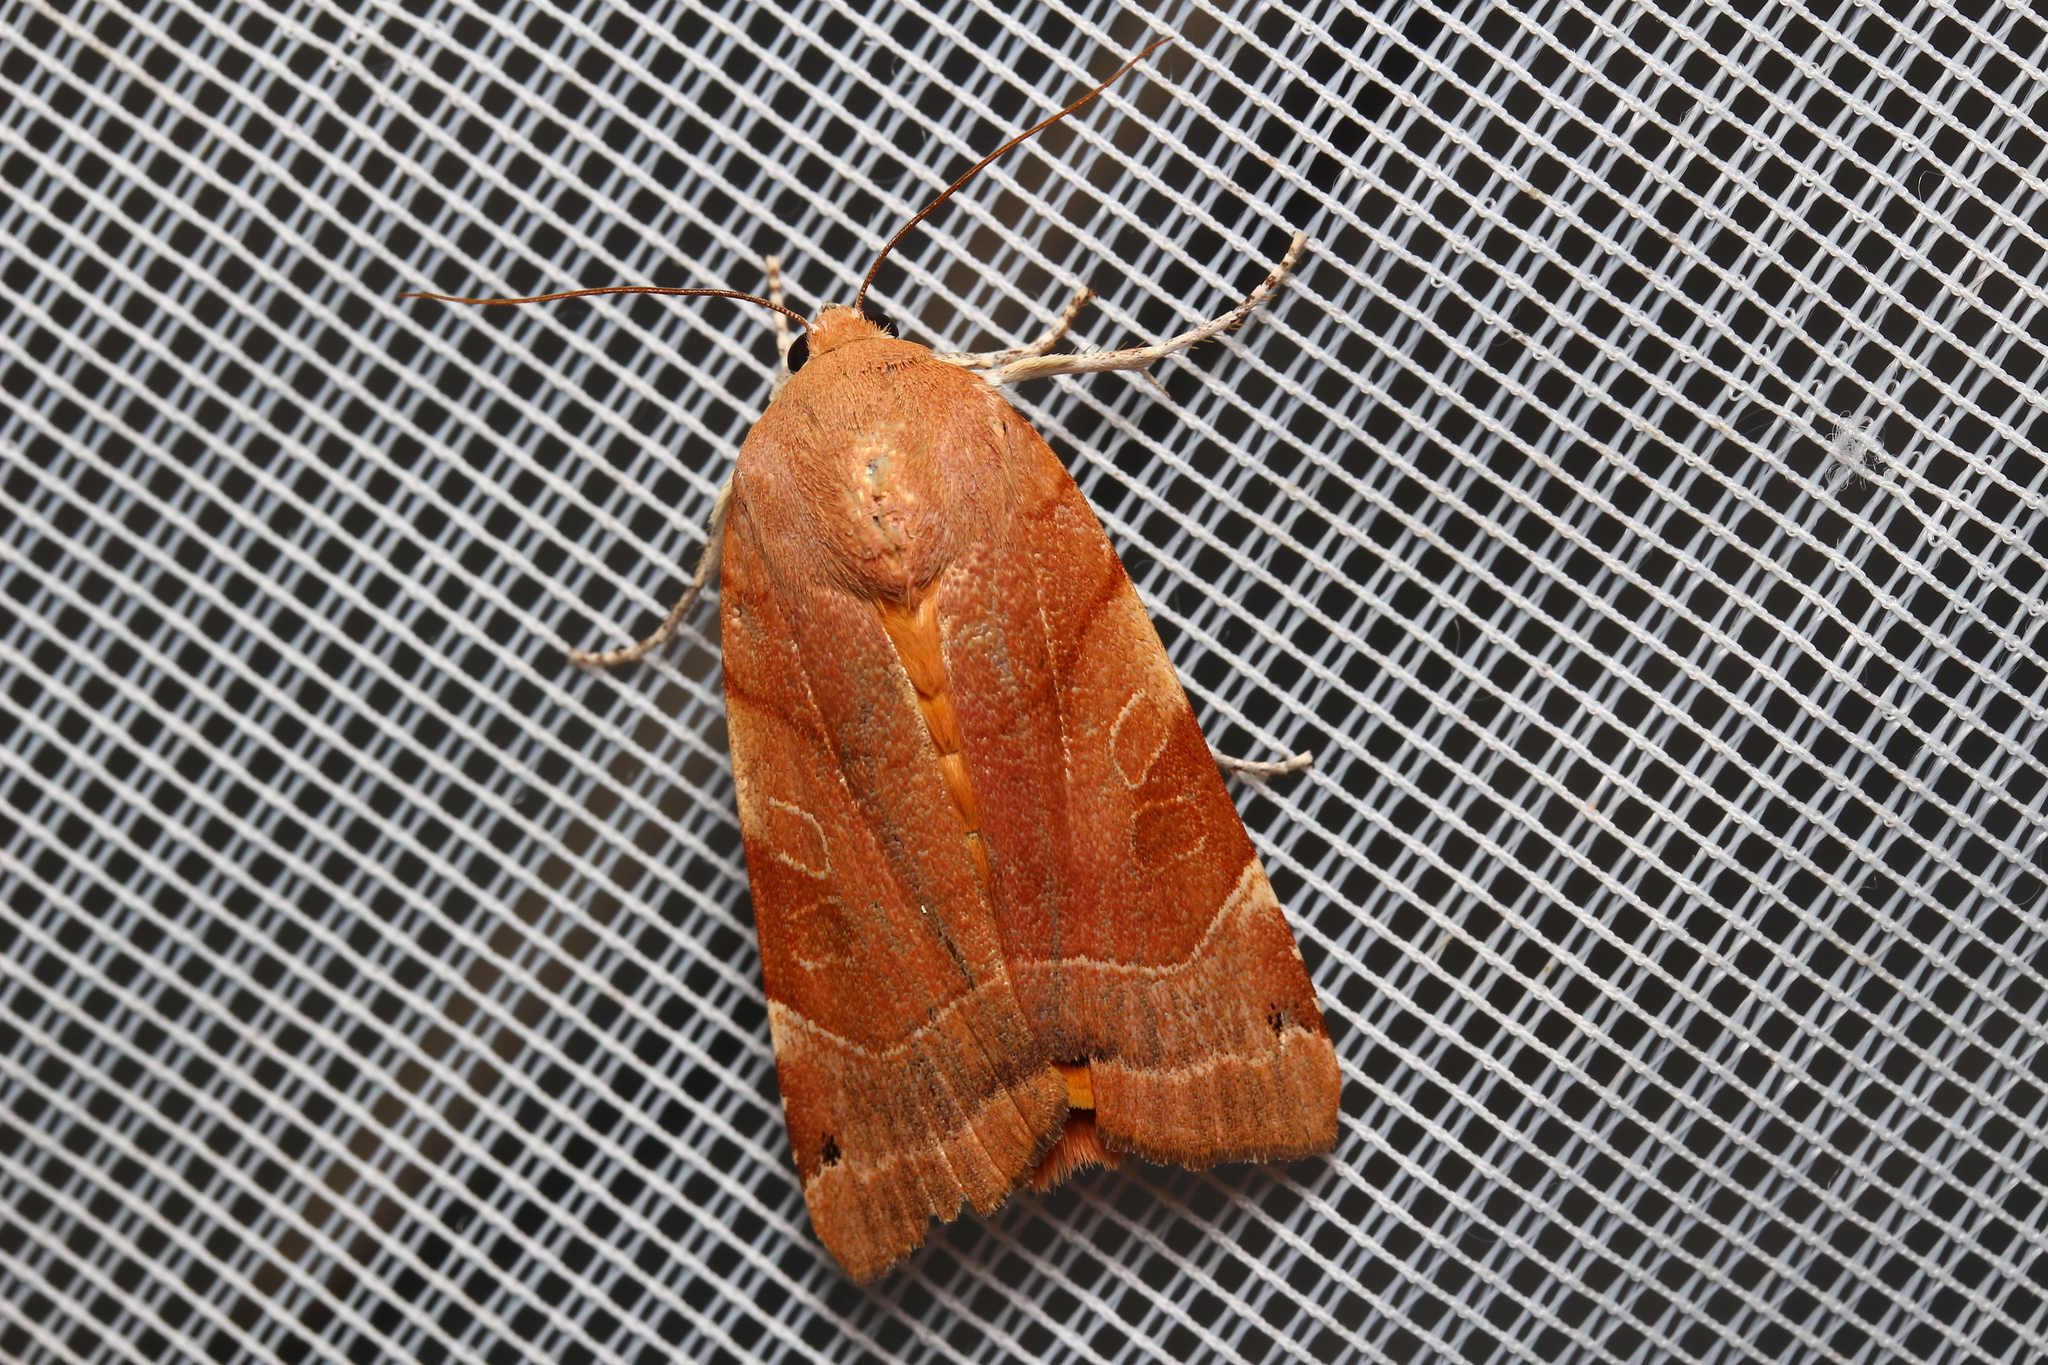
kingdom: Animalia
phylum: Arthropoda
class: Insecta
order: Lepidoptera
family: Noctuidae
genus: Noctua
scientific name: Noctua fimbriata
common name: Broad-bordered yellow underwing
